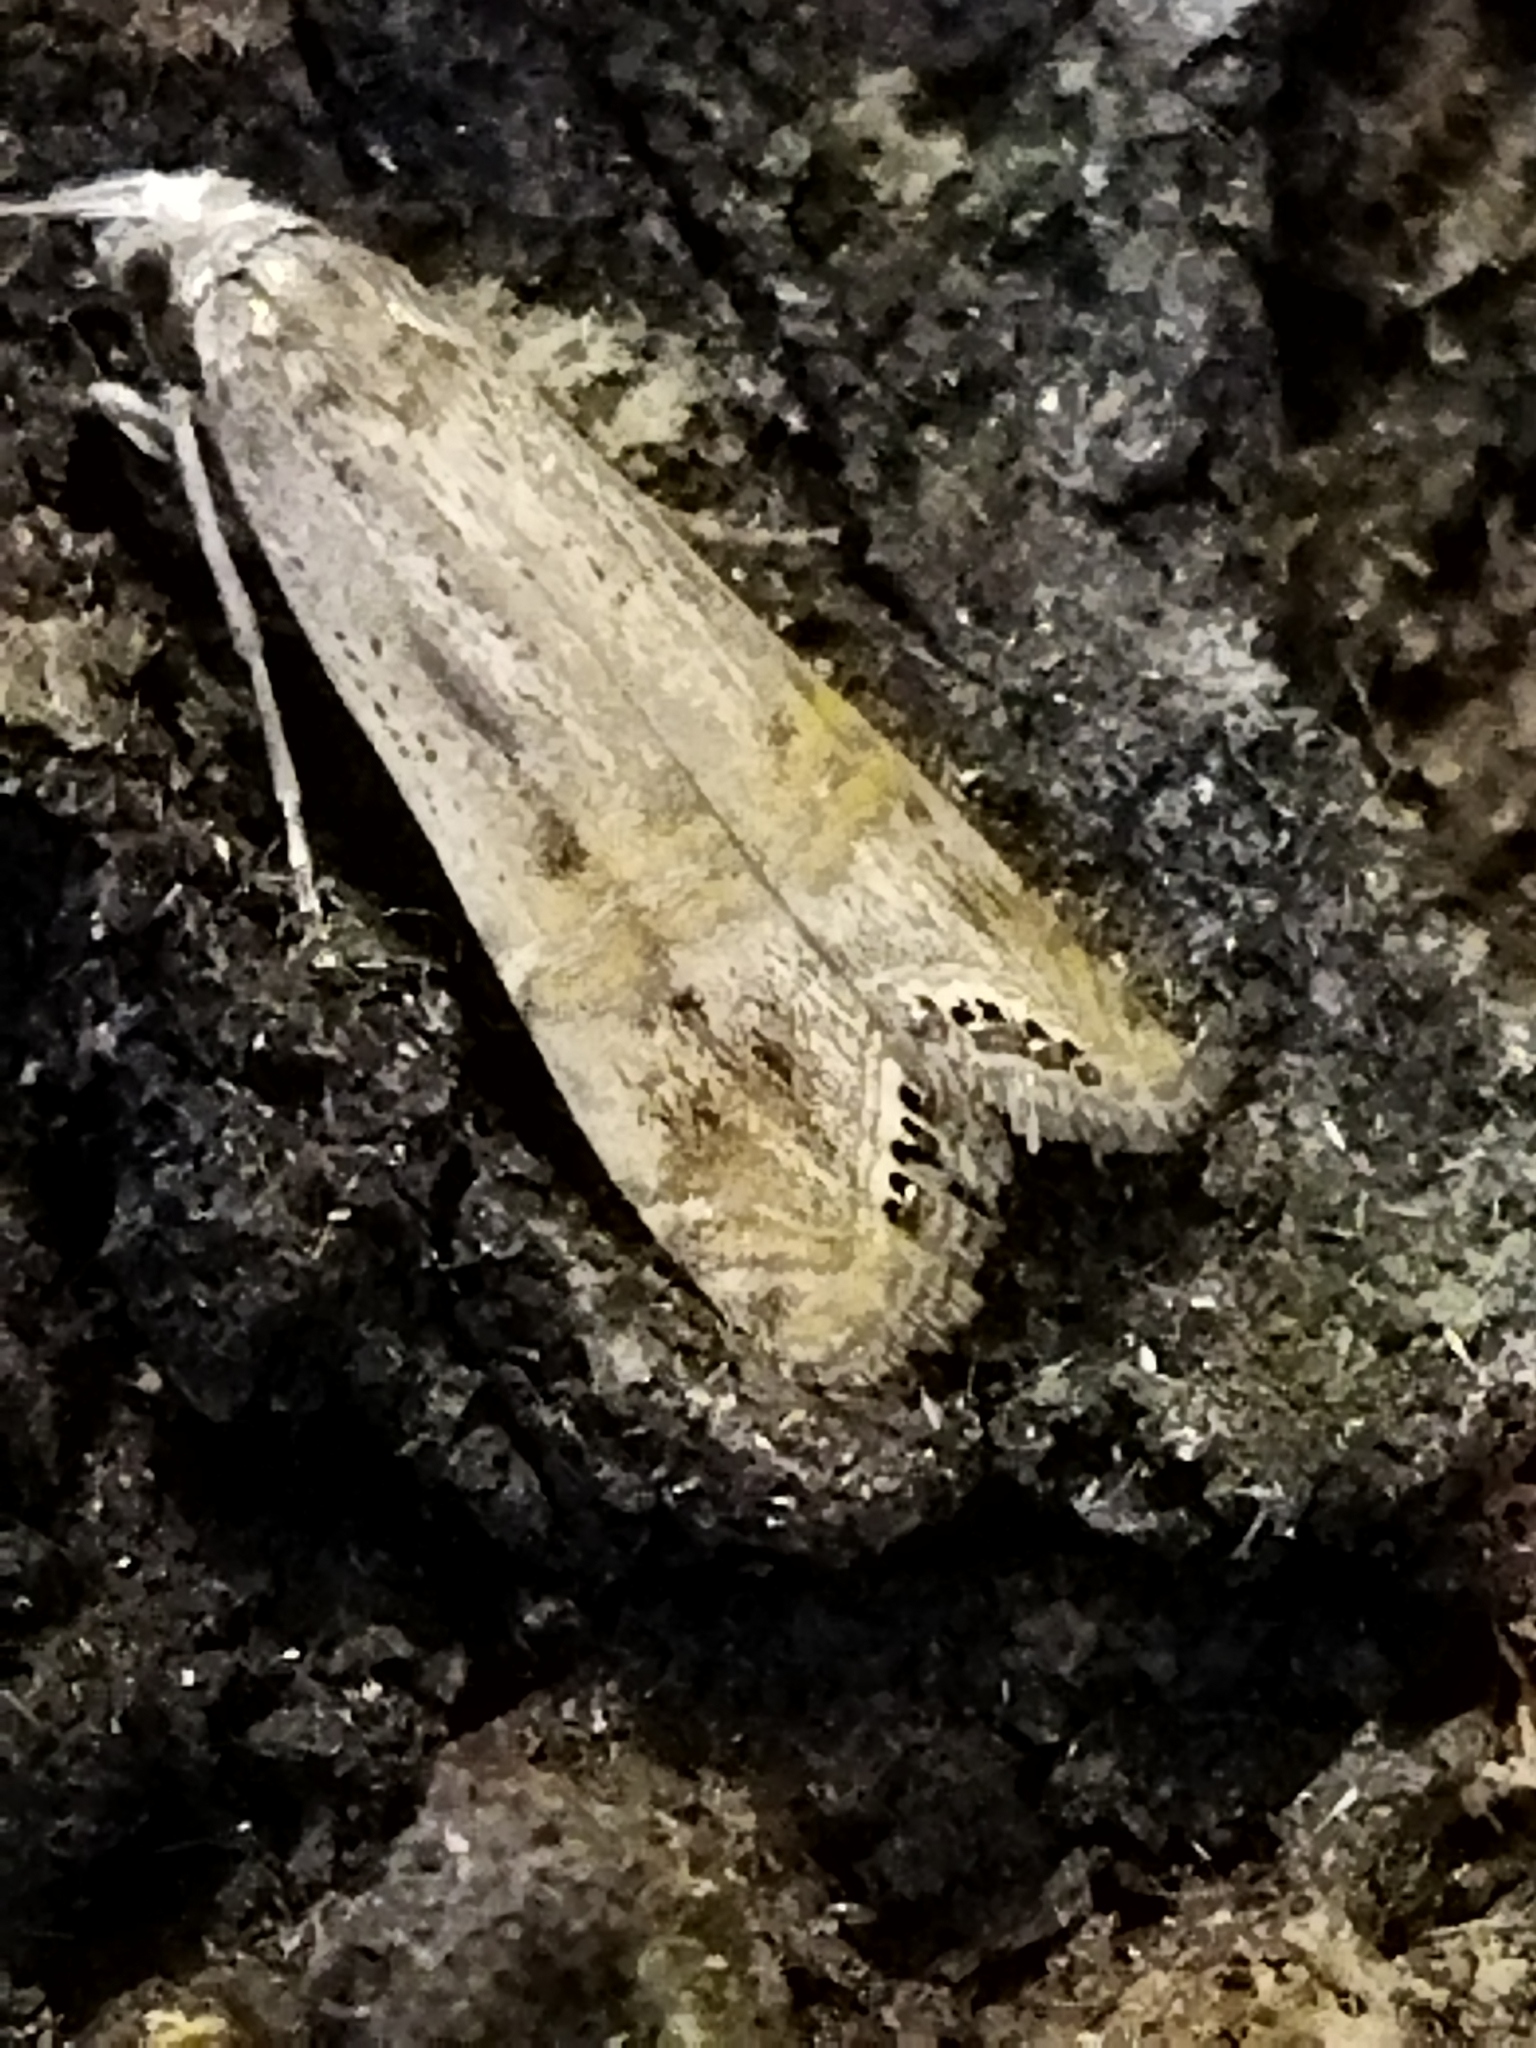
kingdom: Animalia
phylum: Arthropoda
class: Insecta
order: Lepidoptera
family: Crambidae
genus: Euchromius
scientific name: Euchromius ocellea
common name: Necklace veneer moth
